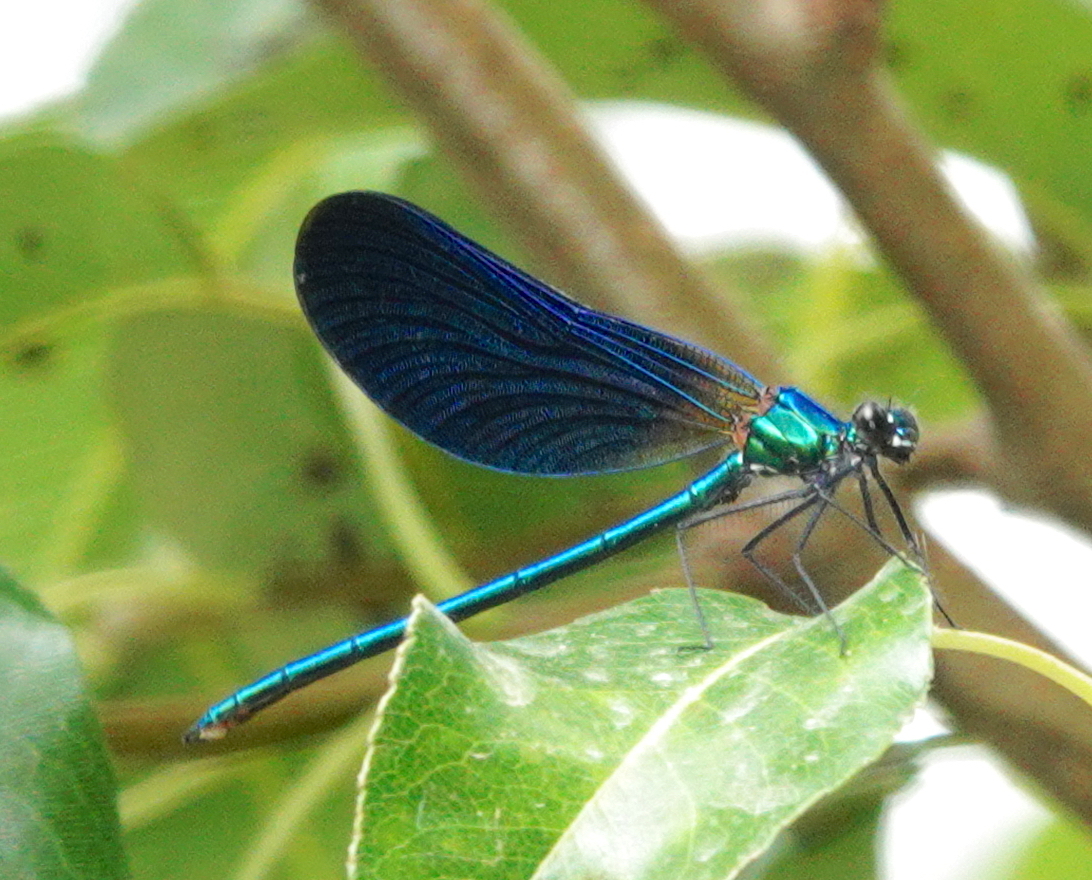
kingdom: Animalia
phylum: Arthropoda
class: Insecta
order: Odonata
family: Calopterygidae
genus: Calopteryx
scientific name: Calopteryx virgo
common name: Beautiful demoiselle
